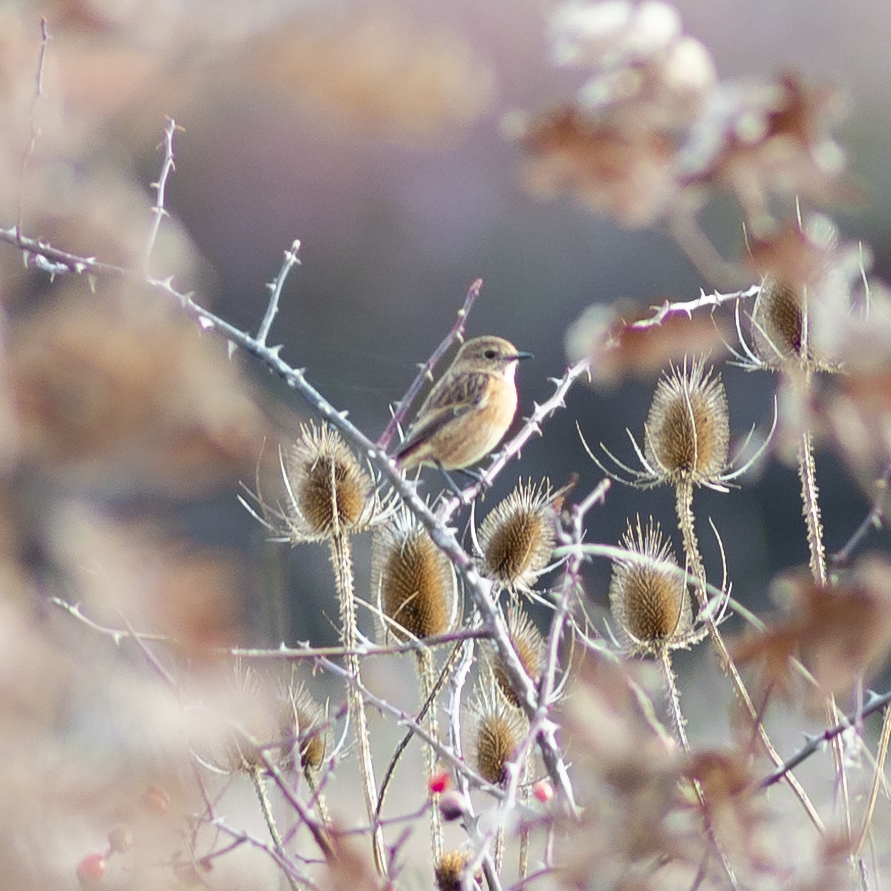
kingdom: Animalia
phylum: Chordata
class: Aves
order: Passeriformes
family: Muscicapidae
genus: Saxicola
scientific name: Saxicola rubicola
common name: European stonechat
